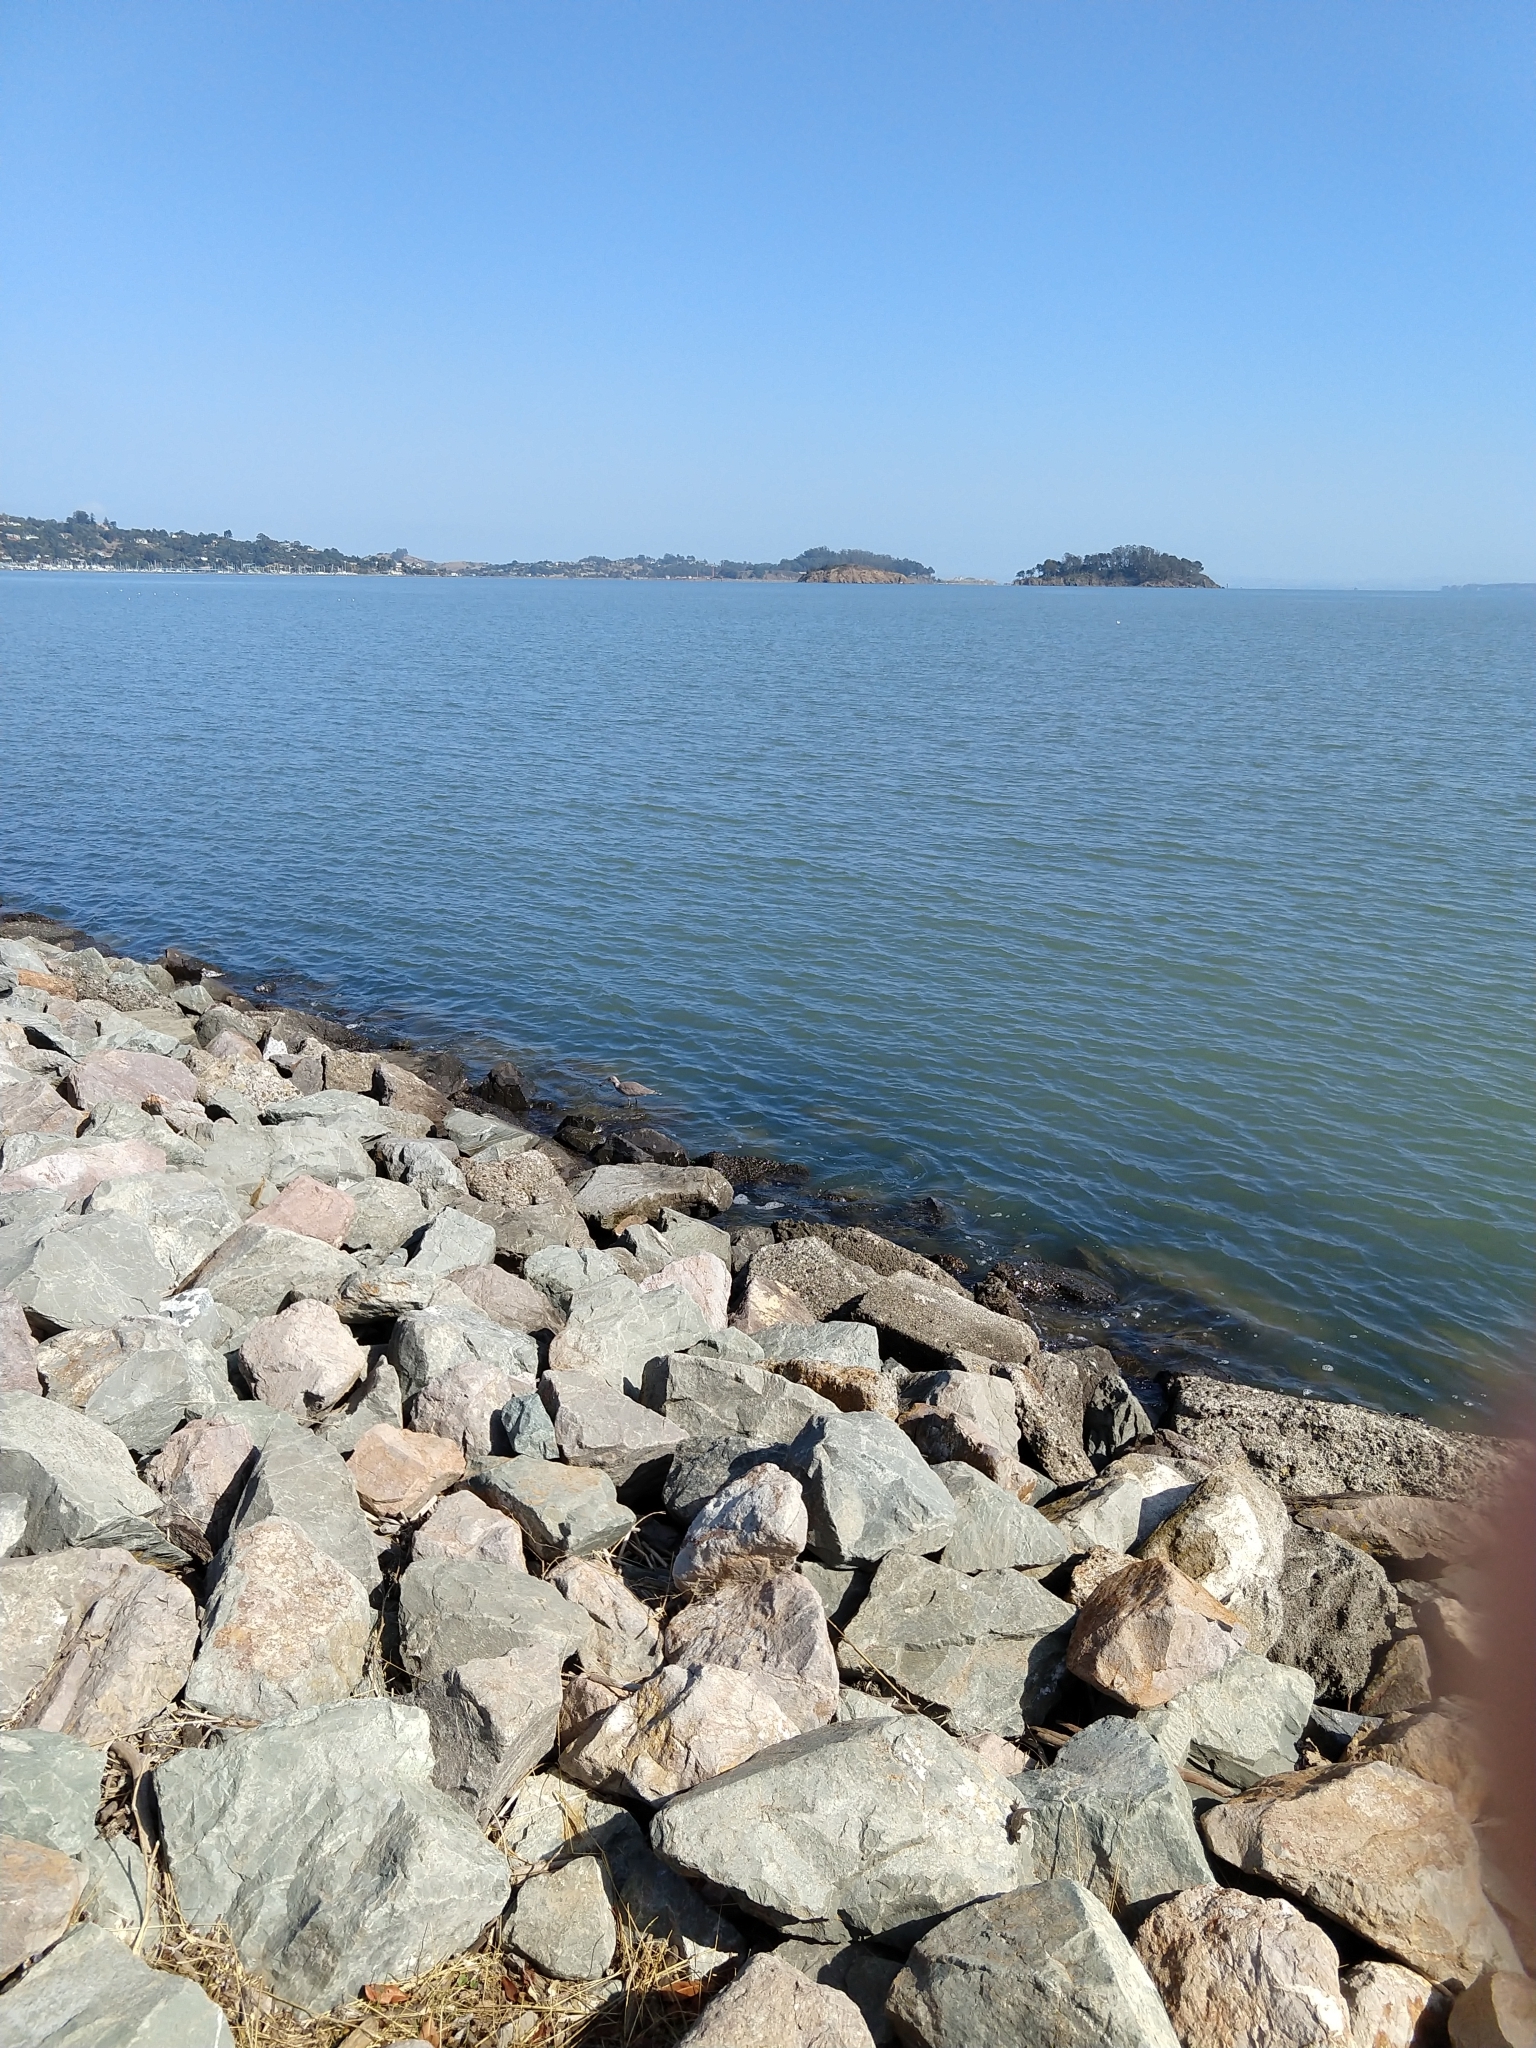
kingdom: Animalia
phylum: Chordata
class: Aves
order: Charadriiformes
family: Scolopacidae
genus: Tringa
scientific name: Tringa semipalmata
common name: Willet
